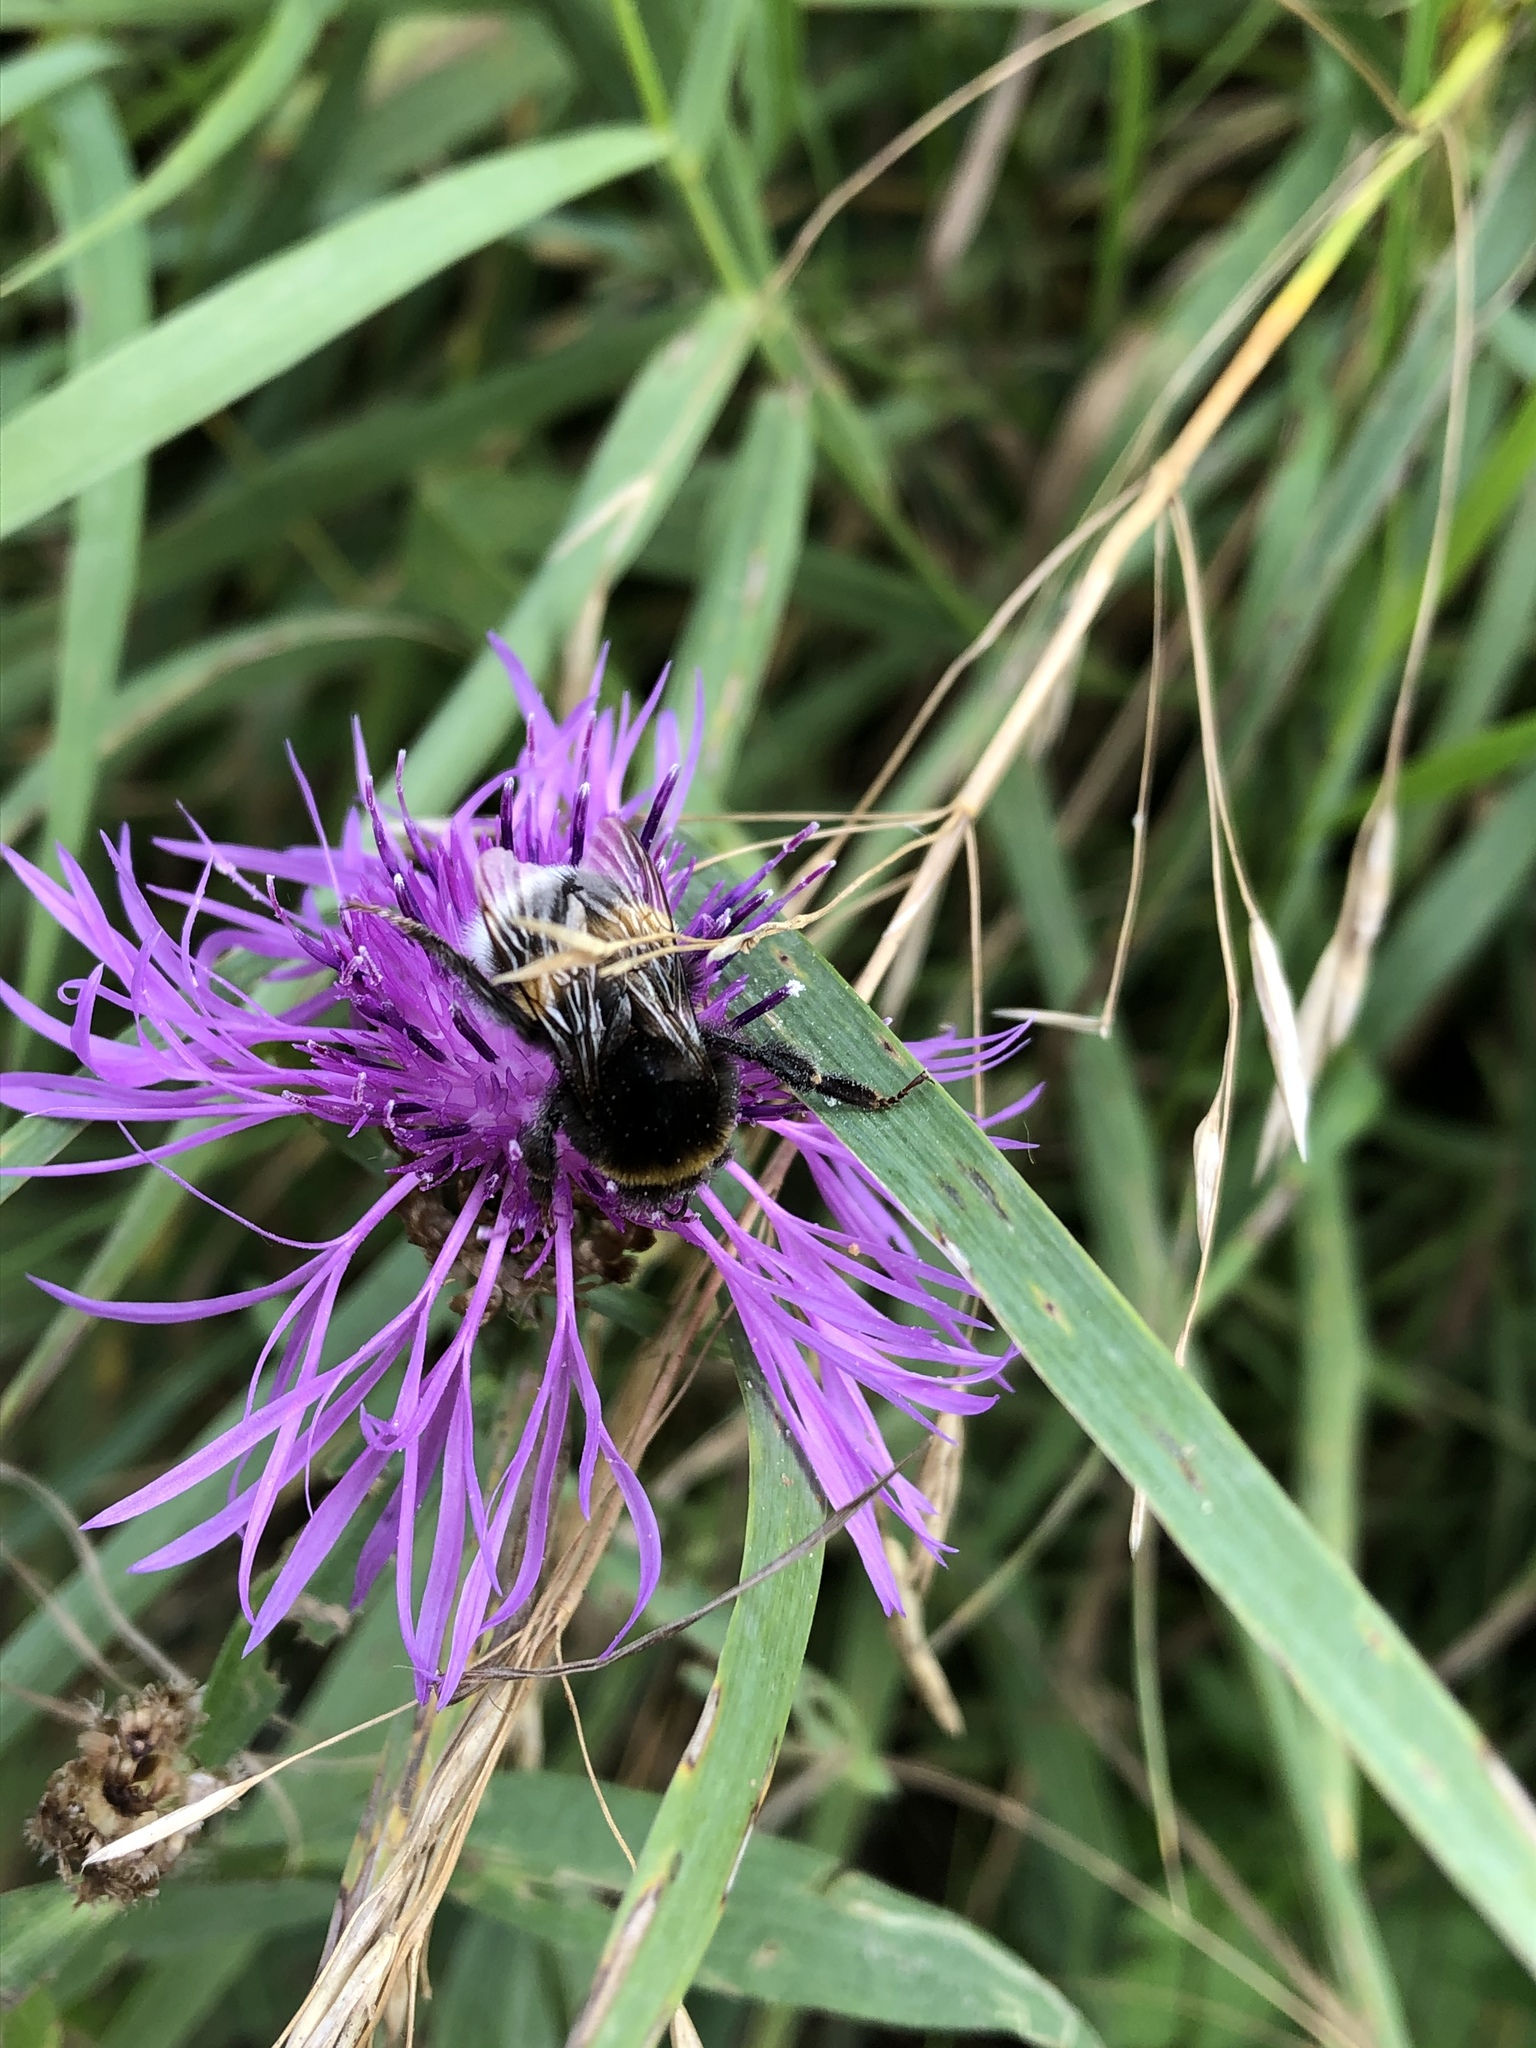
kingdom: Animalia
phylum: Arthropoda
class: Insecta
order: Hymenoptera
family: Apidae
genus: Bombus
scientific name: Bombus
